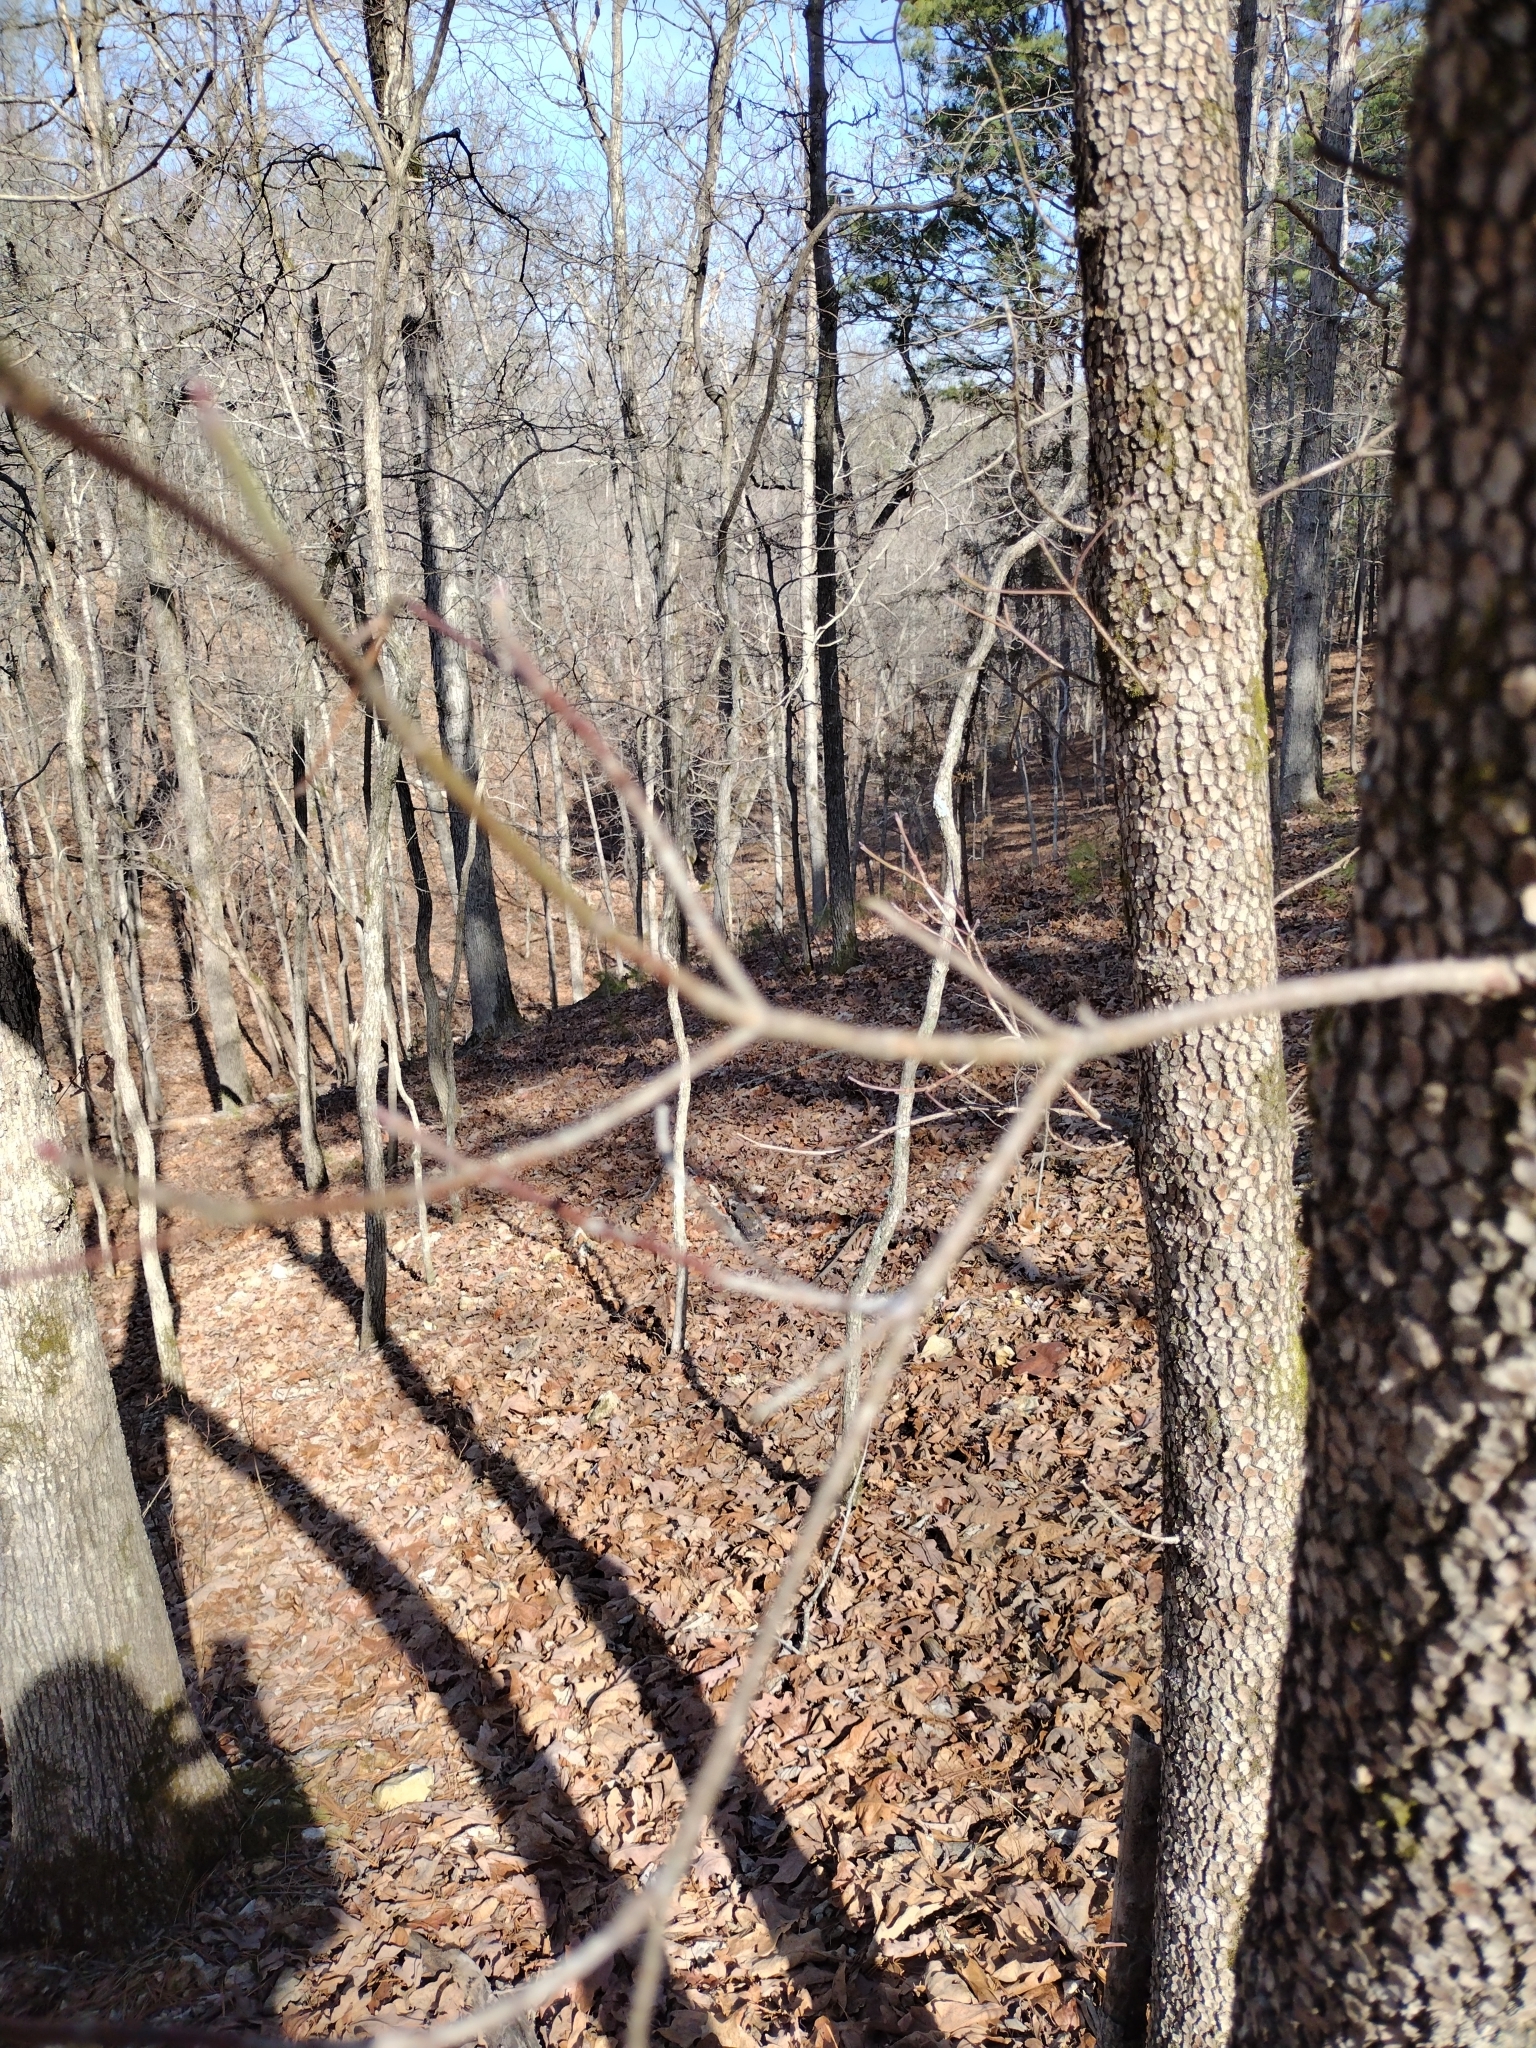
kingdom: Plantae
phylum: Tracheophyta
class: Magnoliopsida
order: Cornales
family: Cornaceae
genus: Cornus
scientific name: Cornus florida
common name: Flowering dogwood
